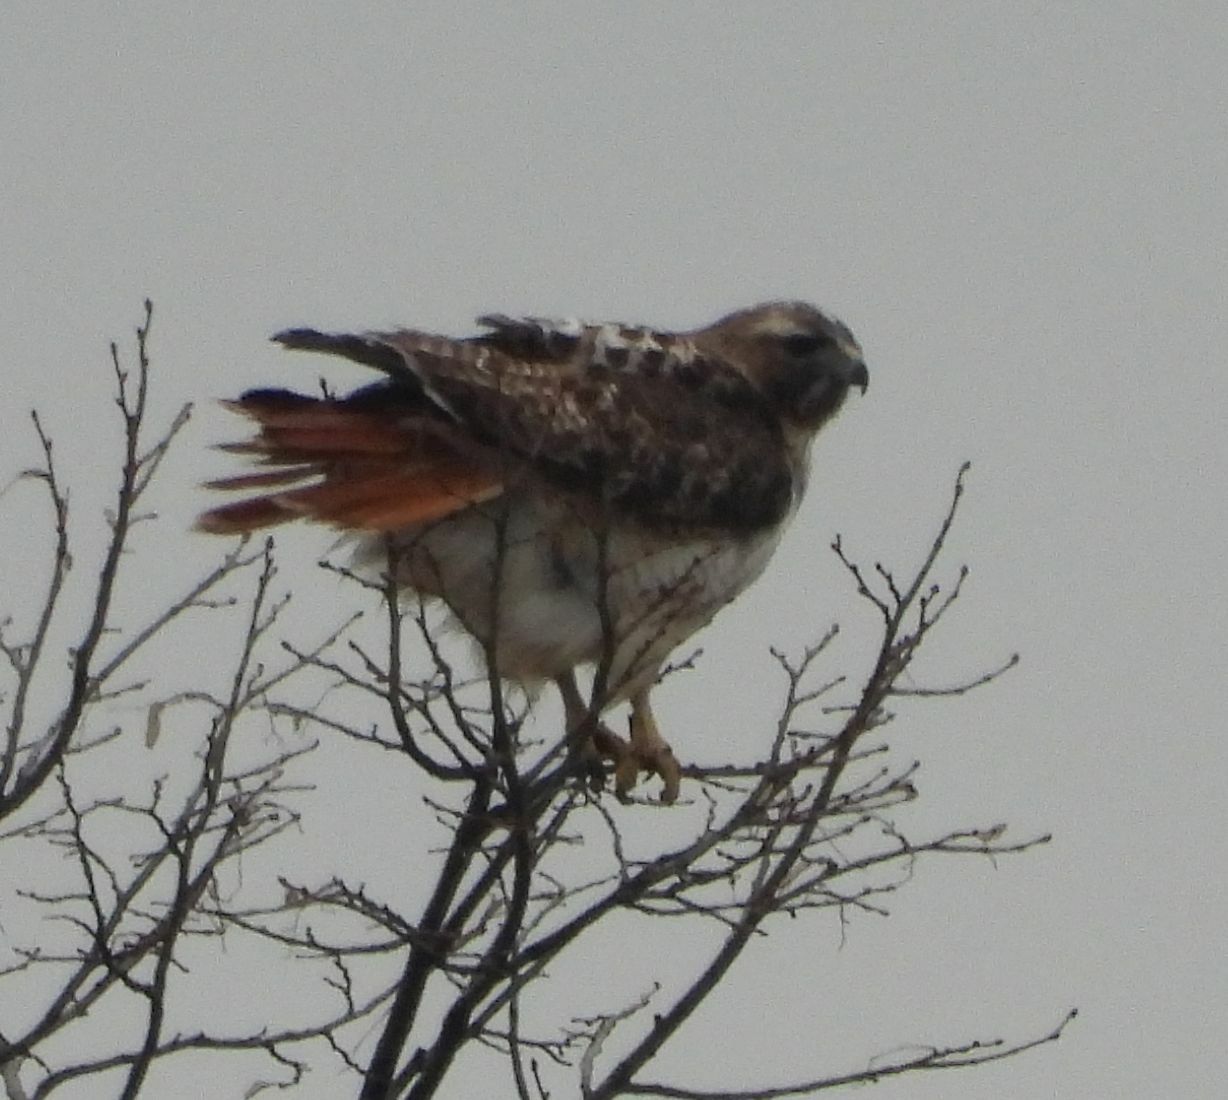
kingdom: Animalia
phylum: Chordata
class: Aves
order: Accipitriformes
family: Accipitridae
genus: Buteo
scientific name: Buteo jamaicensis
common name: Red-tailed hawk
